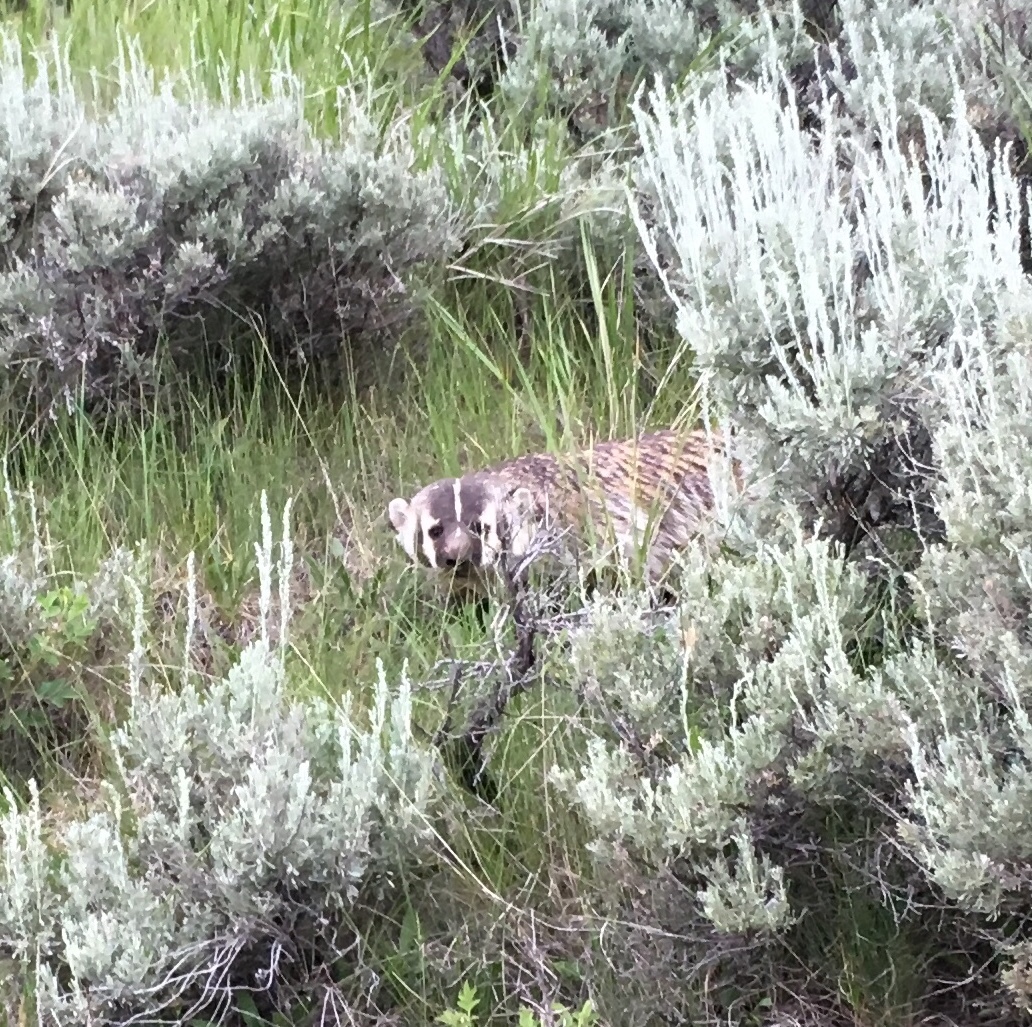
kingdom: Animalia
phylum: Chordata
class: Mammalia
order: Carnivora
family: Mustelidae
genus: Taxidea
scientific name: Taxidea taxus
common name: American badger
